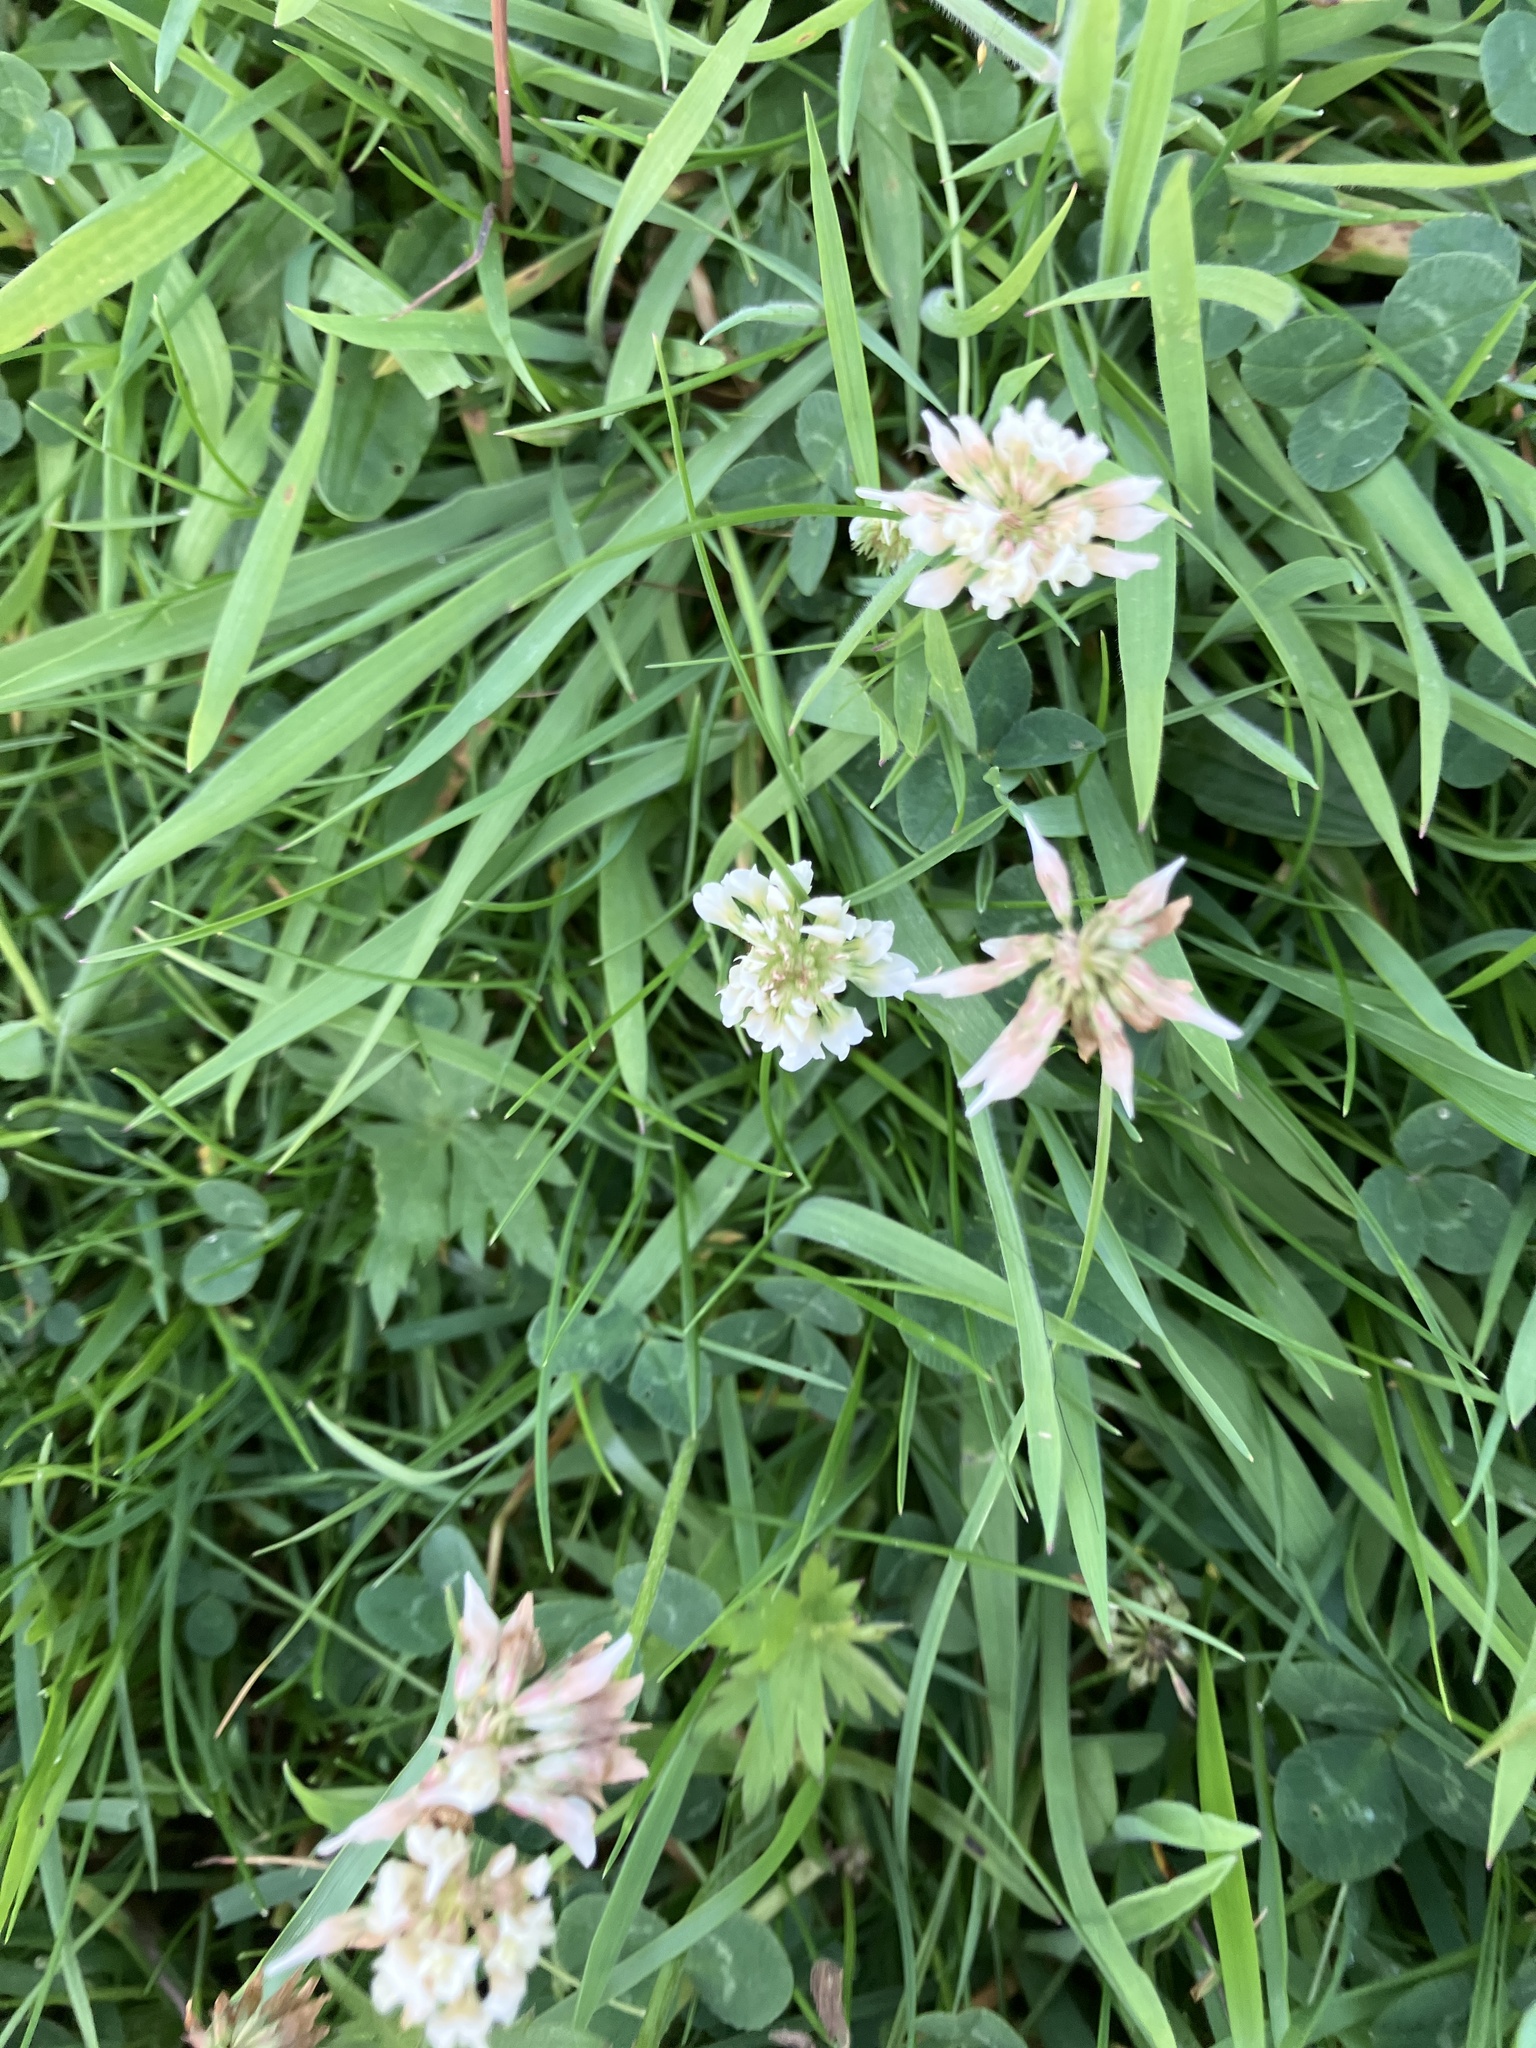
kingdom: Plantae
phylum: Tracheophyta
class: Magnoliopsida
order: Fabales
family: Fabaceae
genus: Trifolium
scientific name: Trifolium repens
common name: White clover
